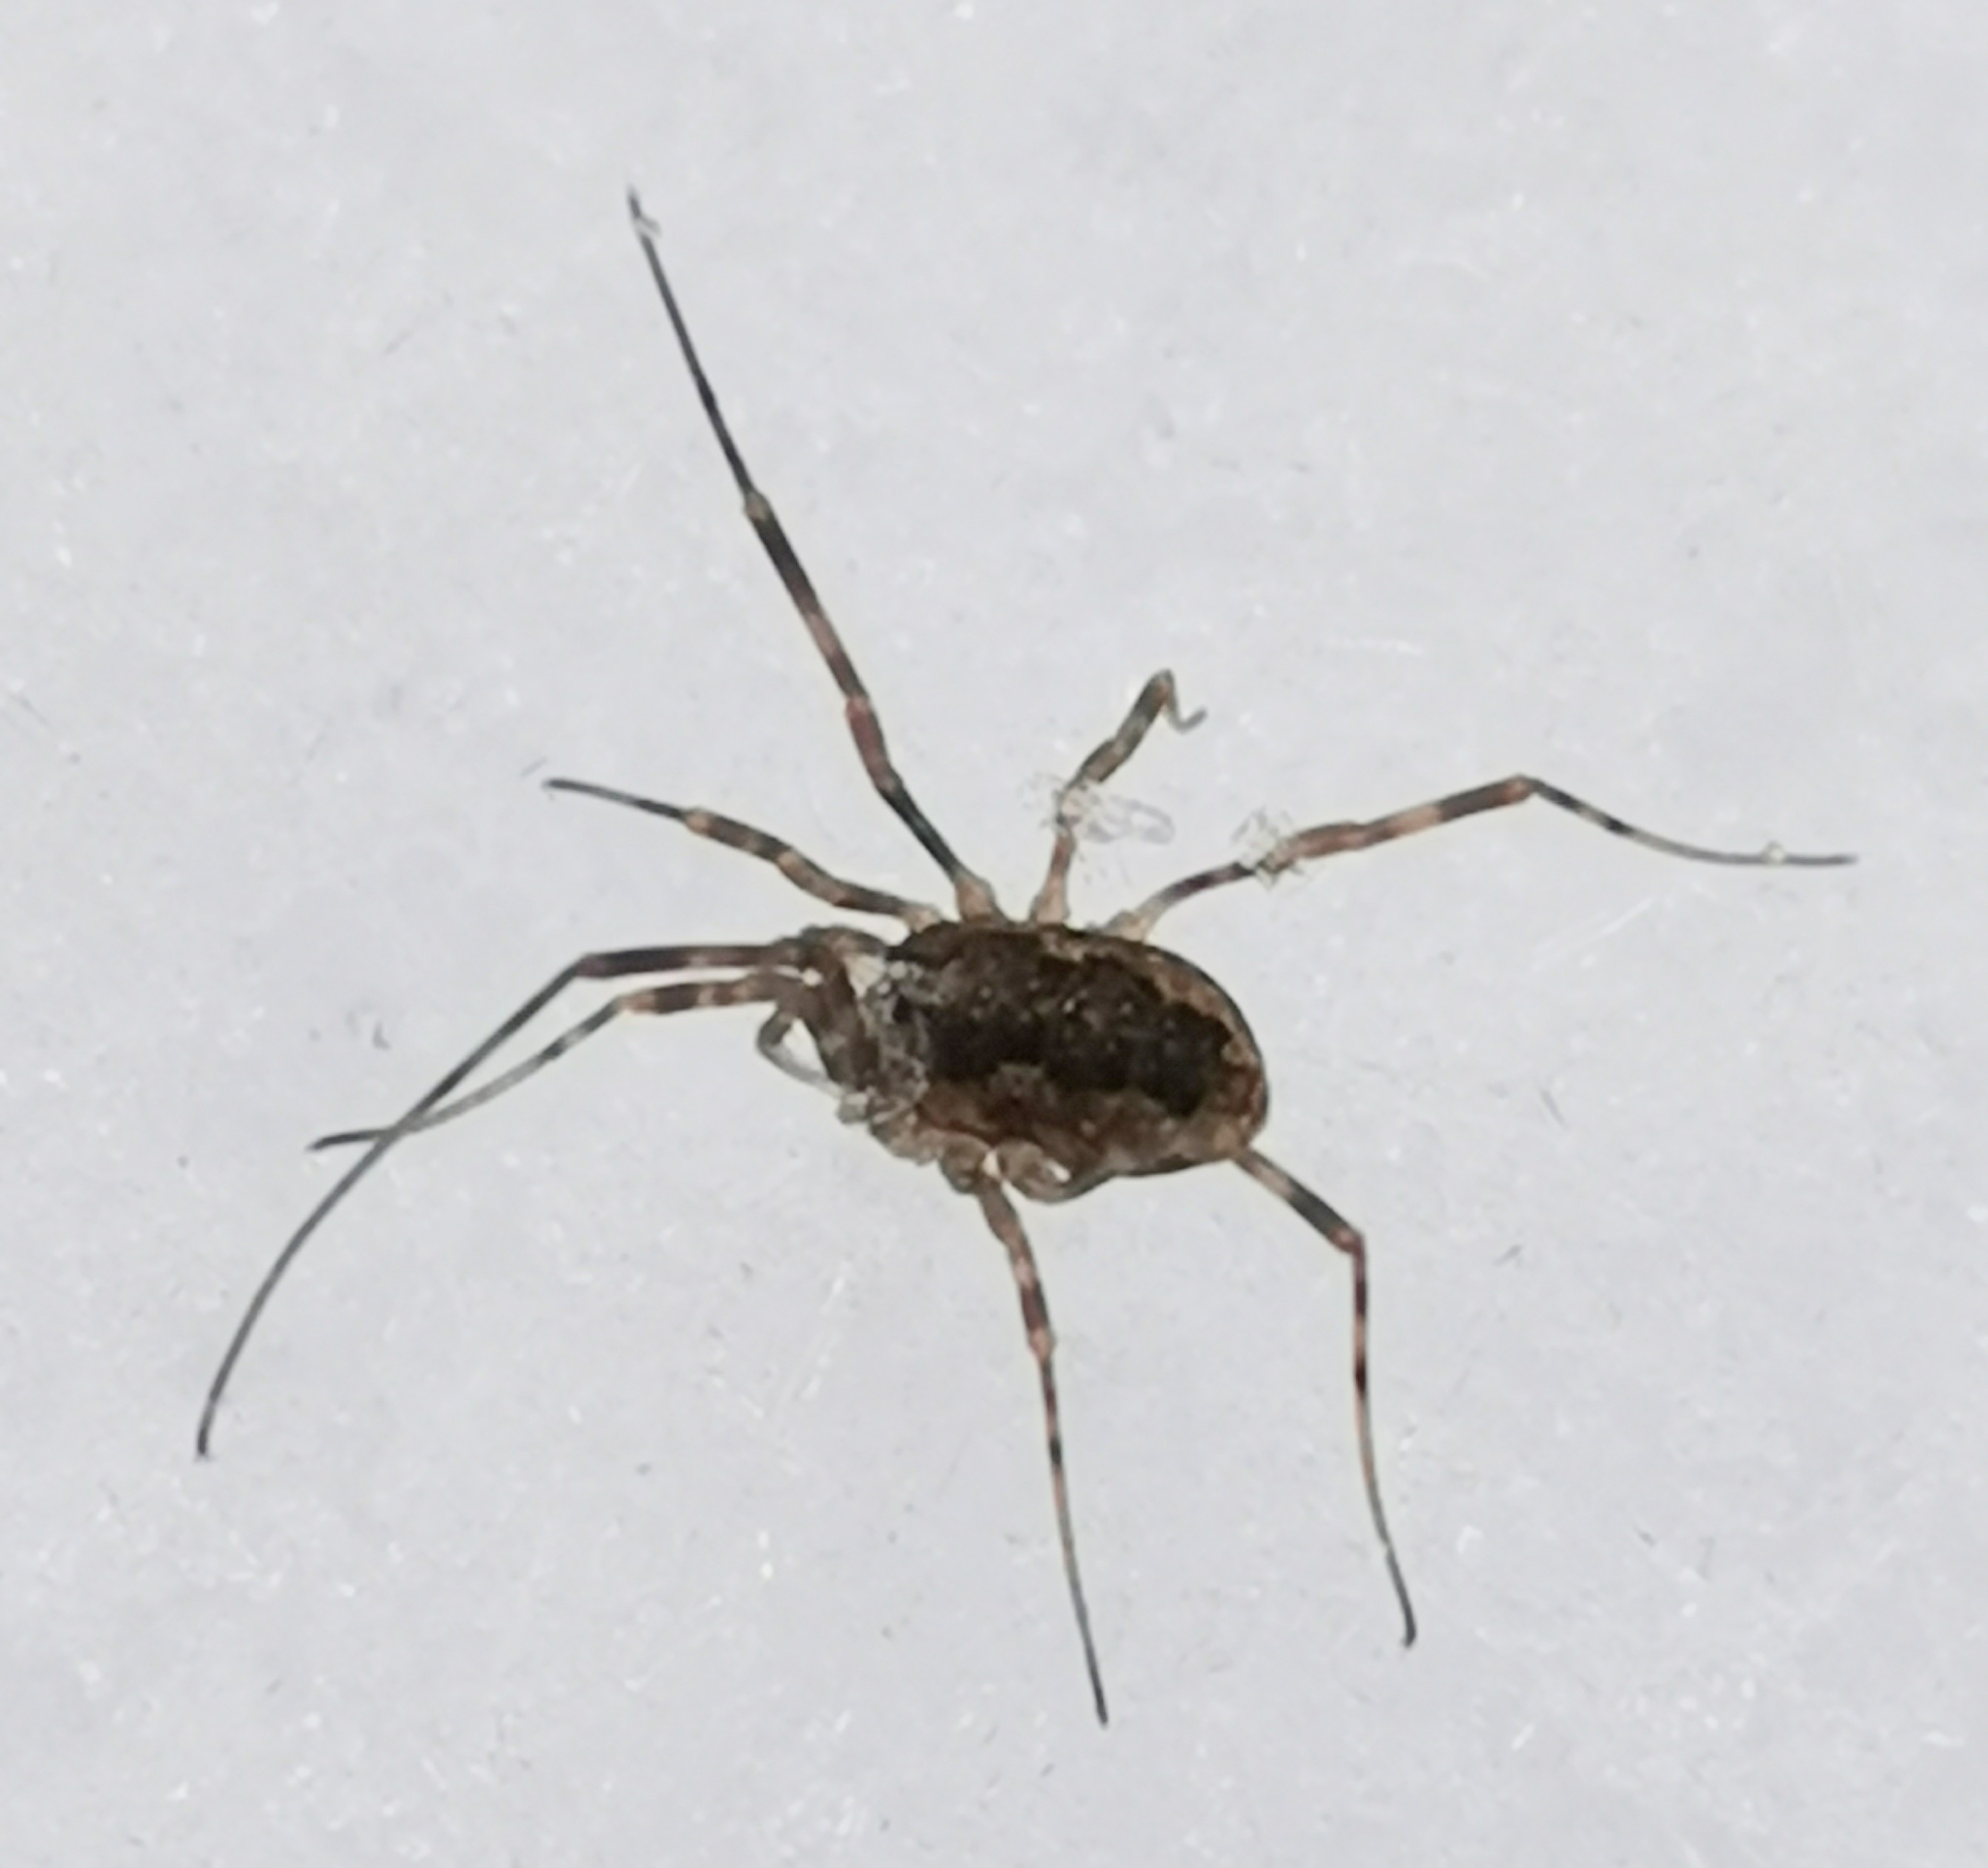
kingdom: Animalia
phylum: Arthropoda
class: Arachnida
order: Opiliones
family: Phalangiidae
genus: Rilaena
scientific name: Rilaena triangularis
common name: Spring harvestman
